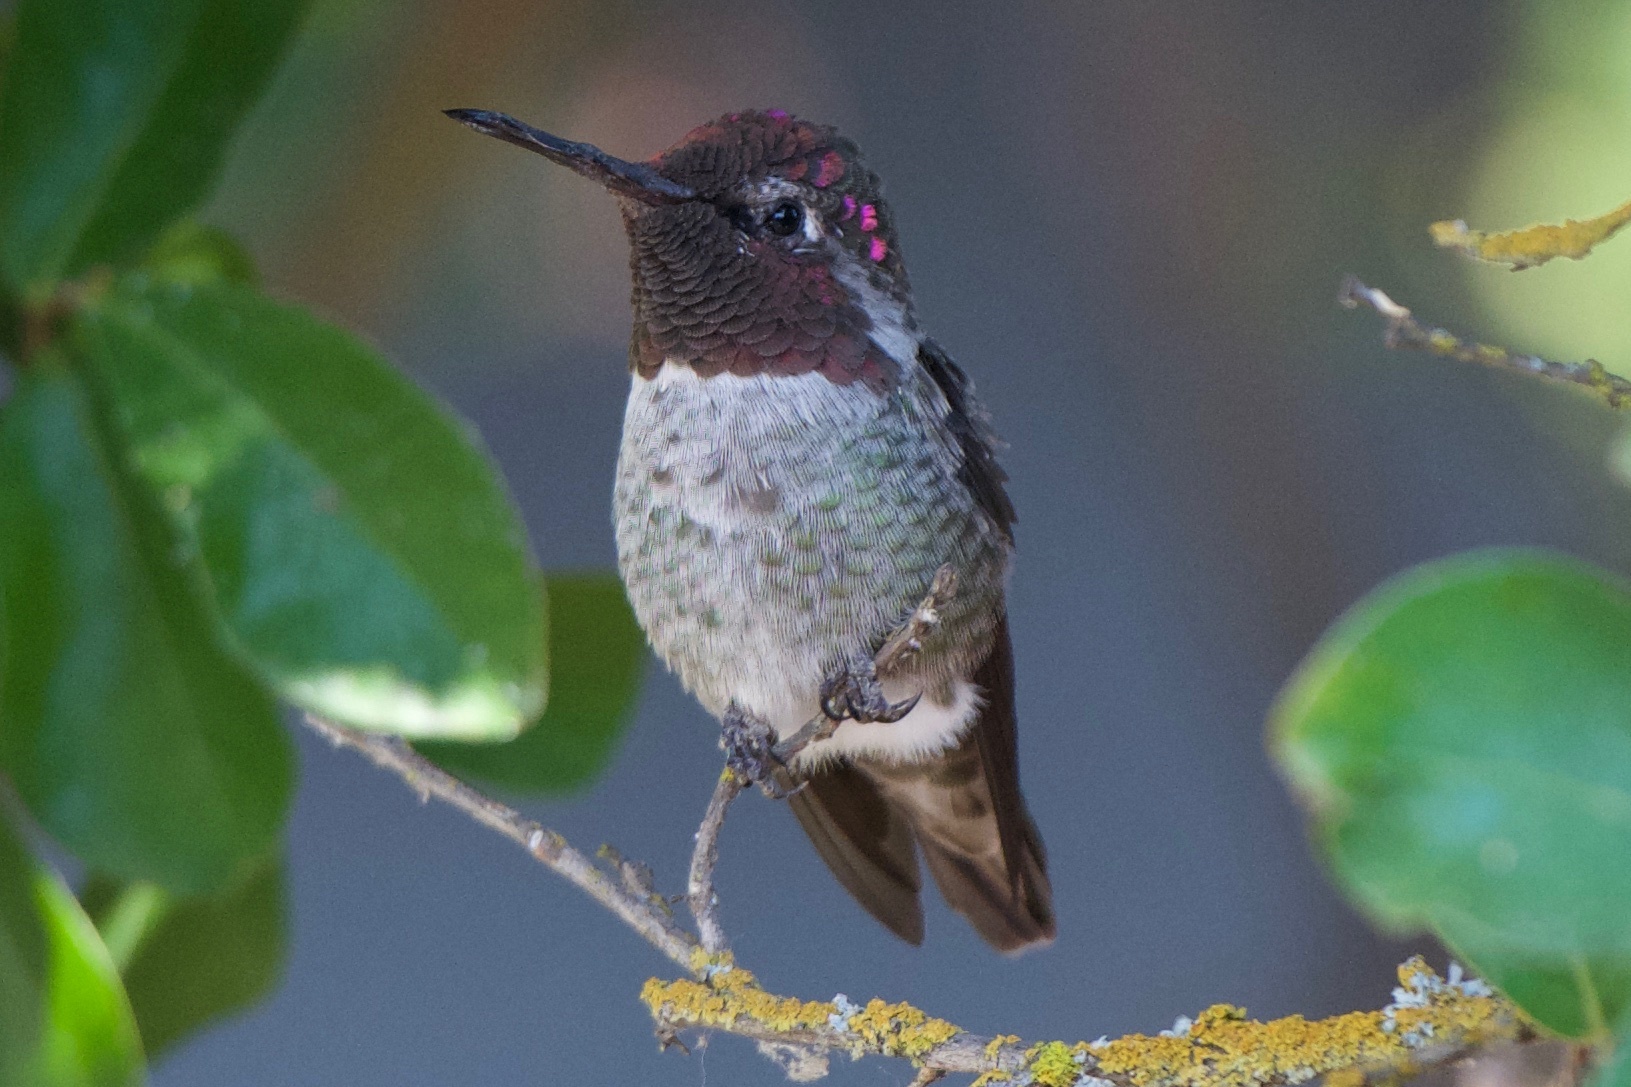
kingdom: Animalia
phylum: Chordata
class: Aves
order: Apodiformes
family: Trochilidae
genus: Calypte
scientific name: Calypte anna
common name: Anna's hummingbird
